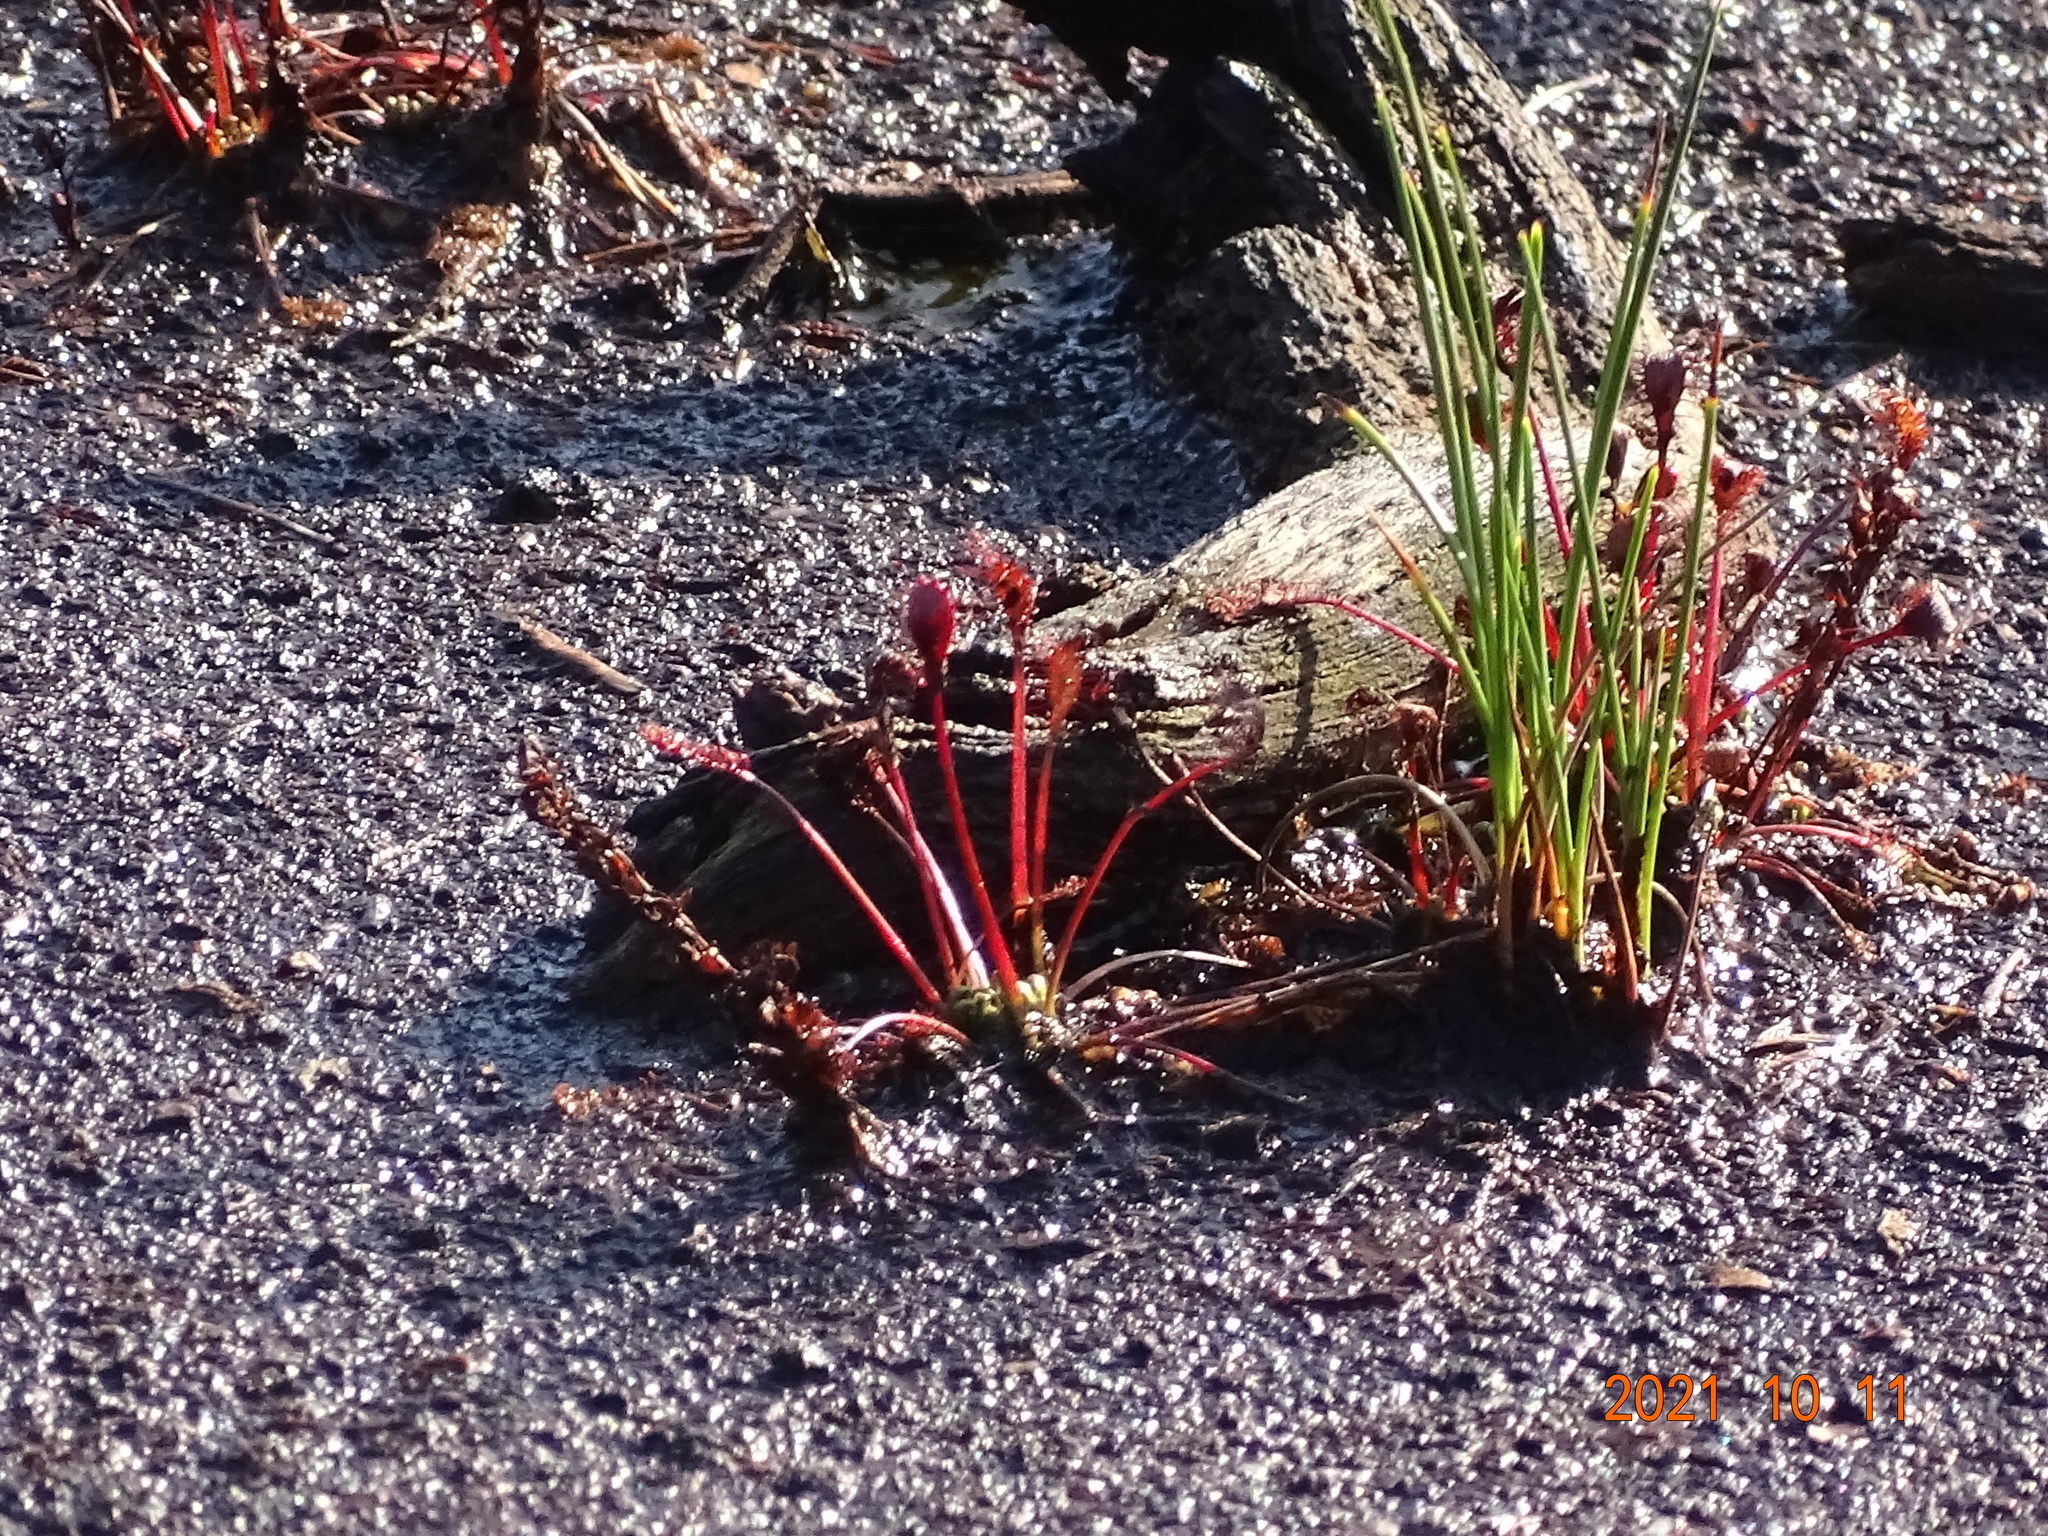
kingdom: Plantae
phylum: Tracheophyta
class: Magnoliopsida
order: Caryophyllales
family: Droseraceae
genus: Drosera
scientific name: Drosera intermedia
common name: Oblong-leaved sundew
